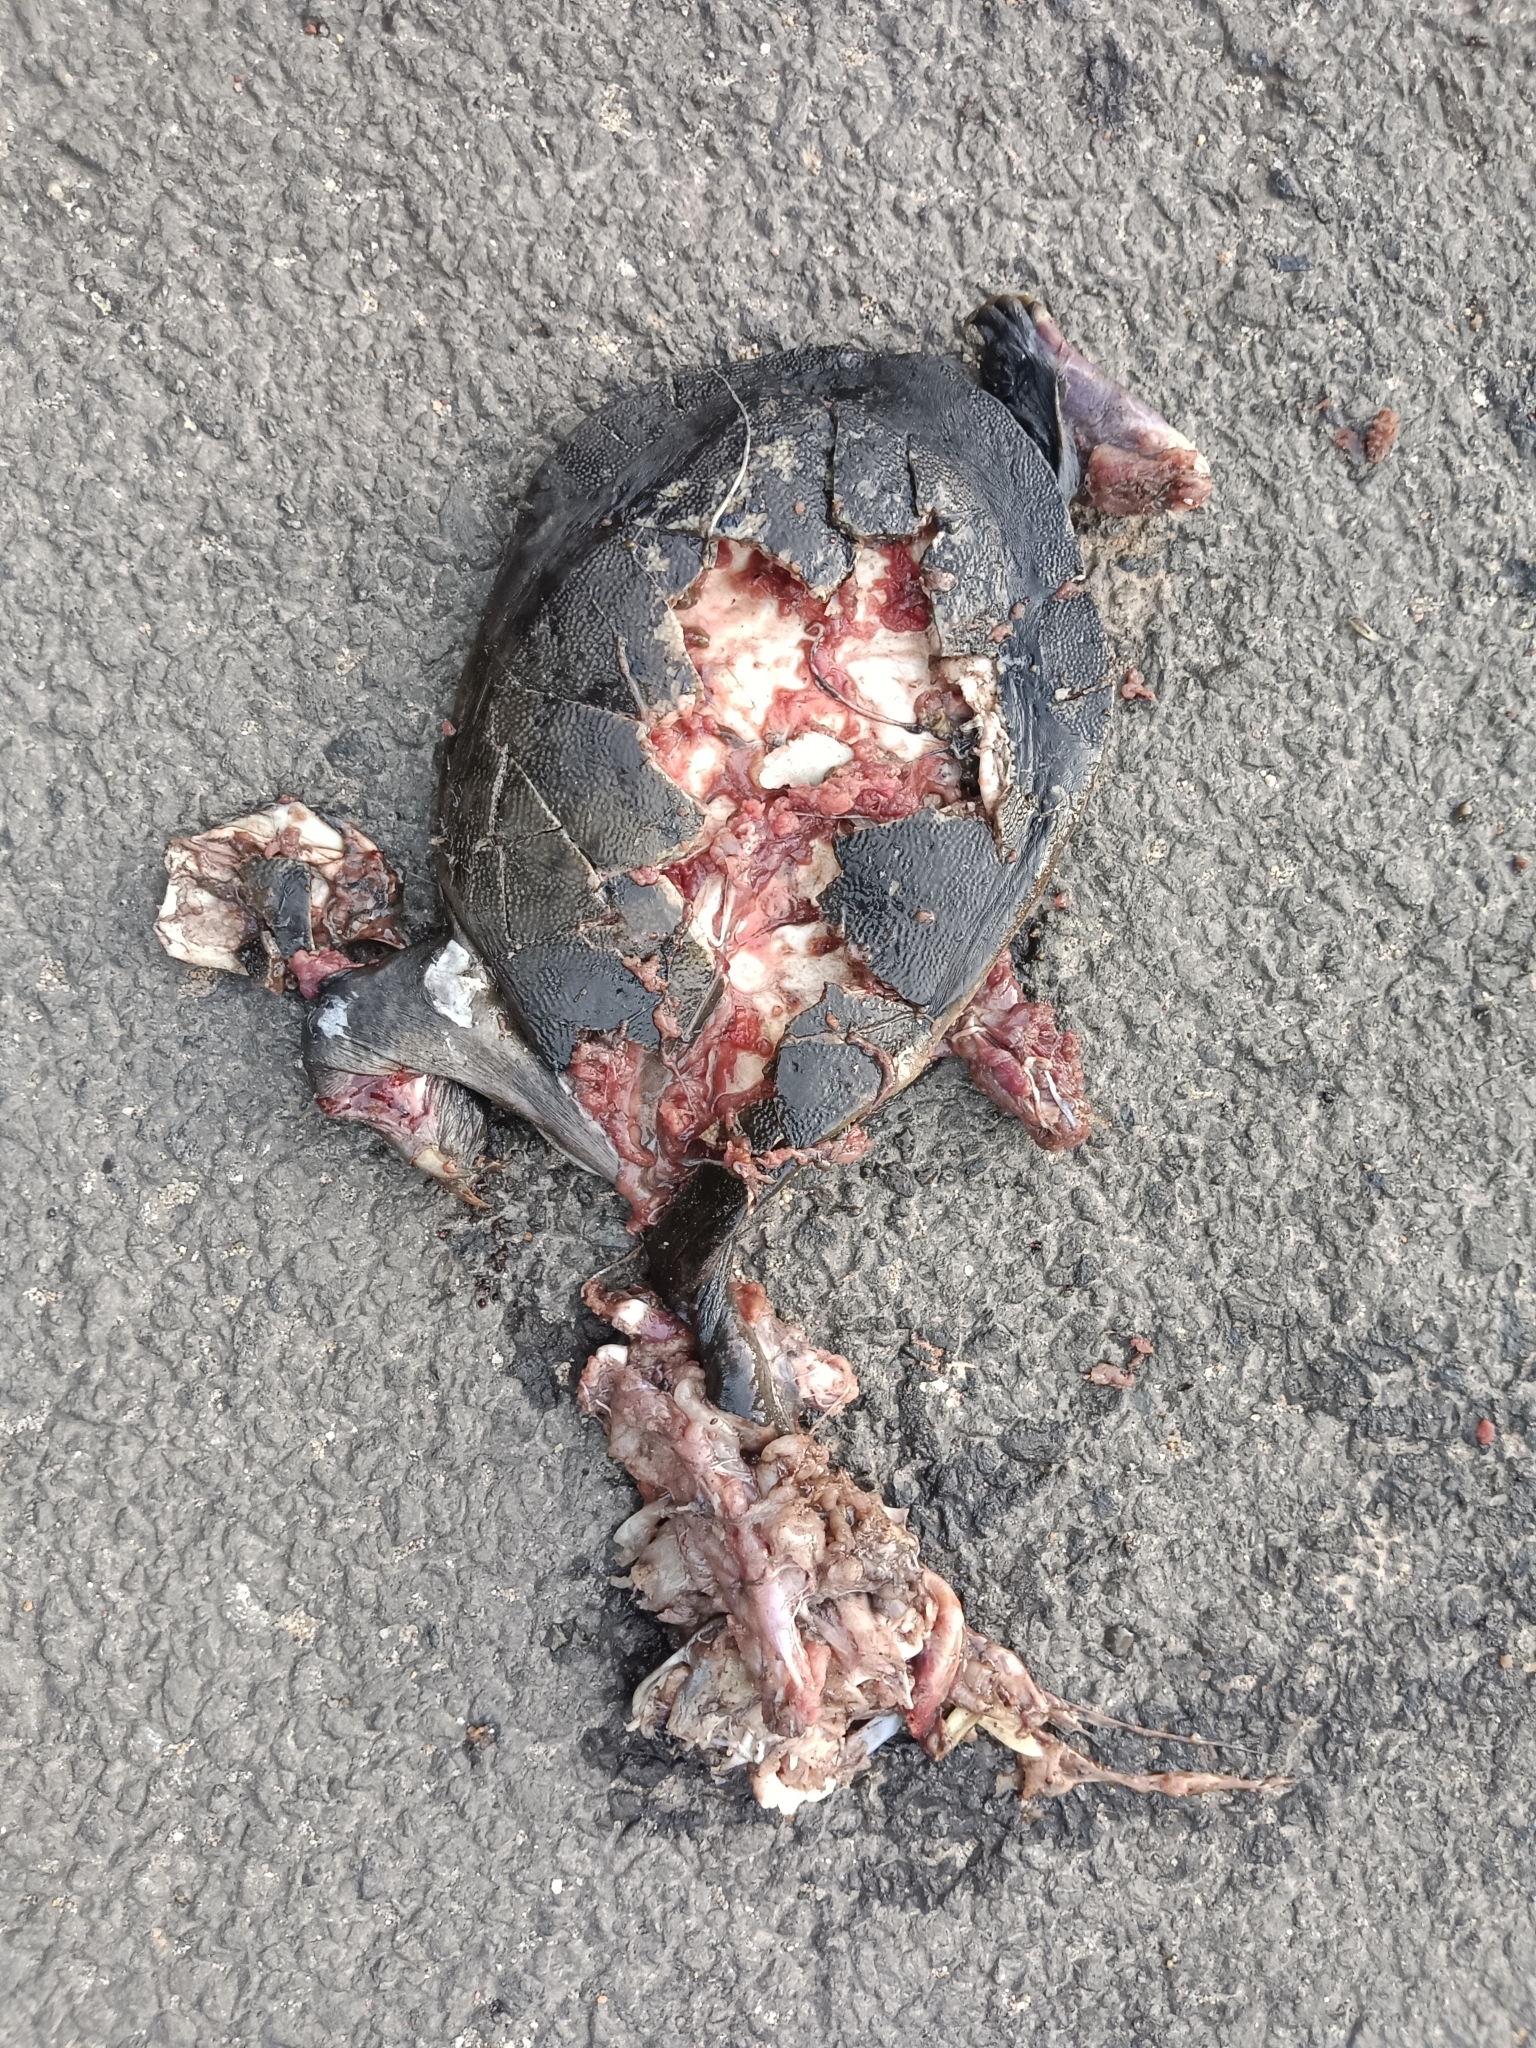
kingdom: Animalia
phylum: Chordata
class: Testudines
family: Trionychidae
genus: Lissemys
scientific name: Lissemys punctata
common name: Indian flap-shelled turtle
